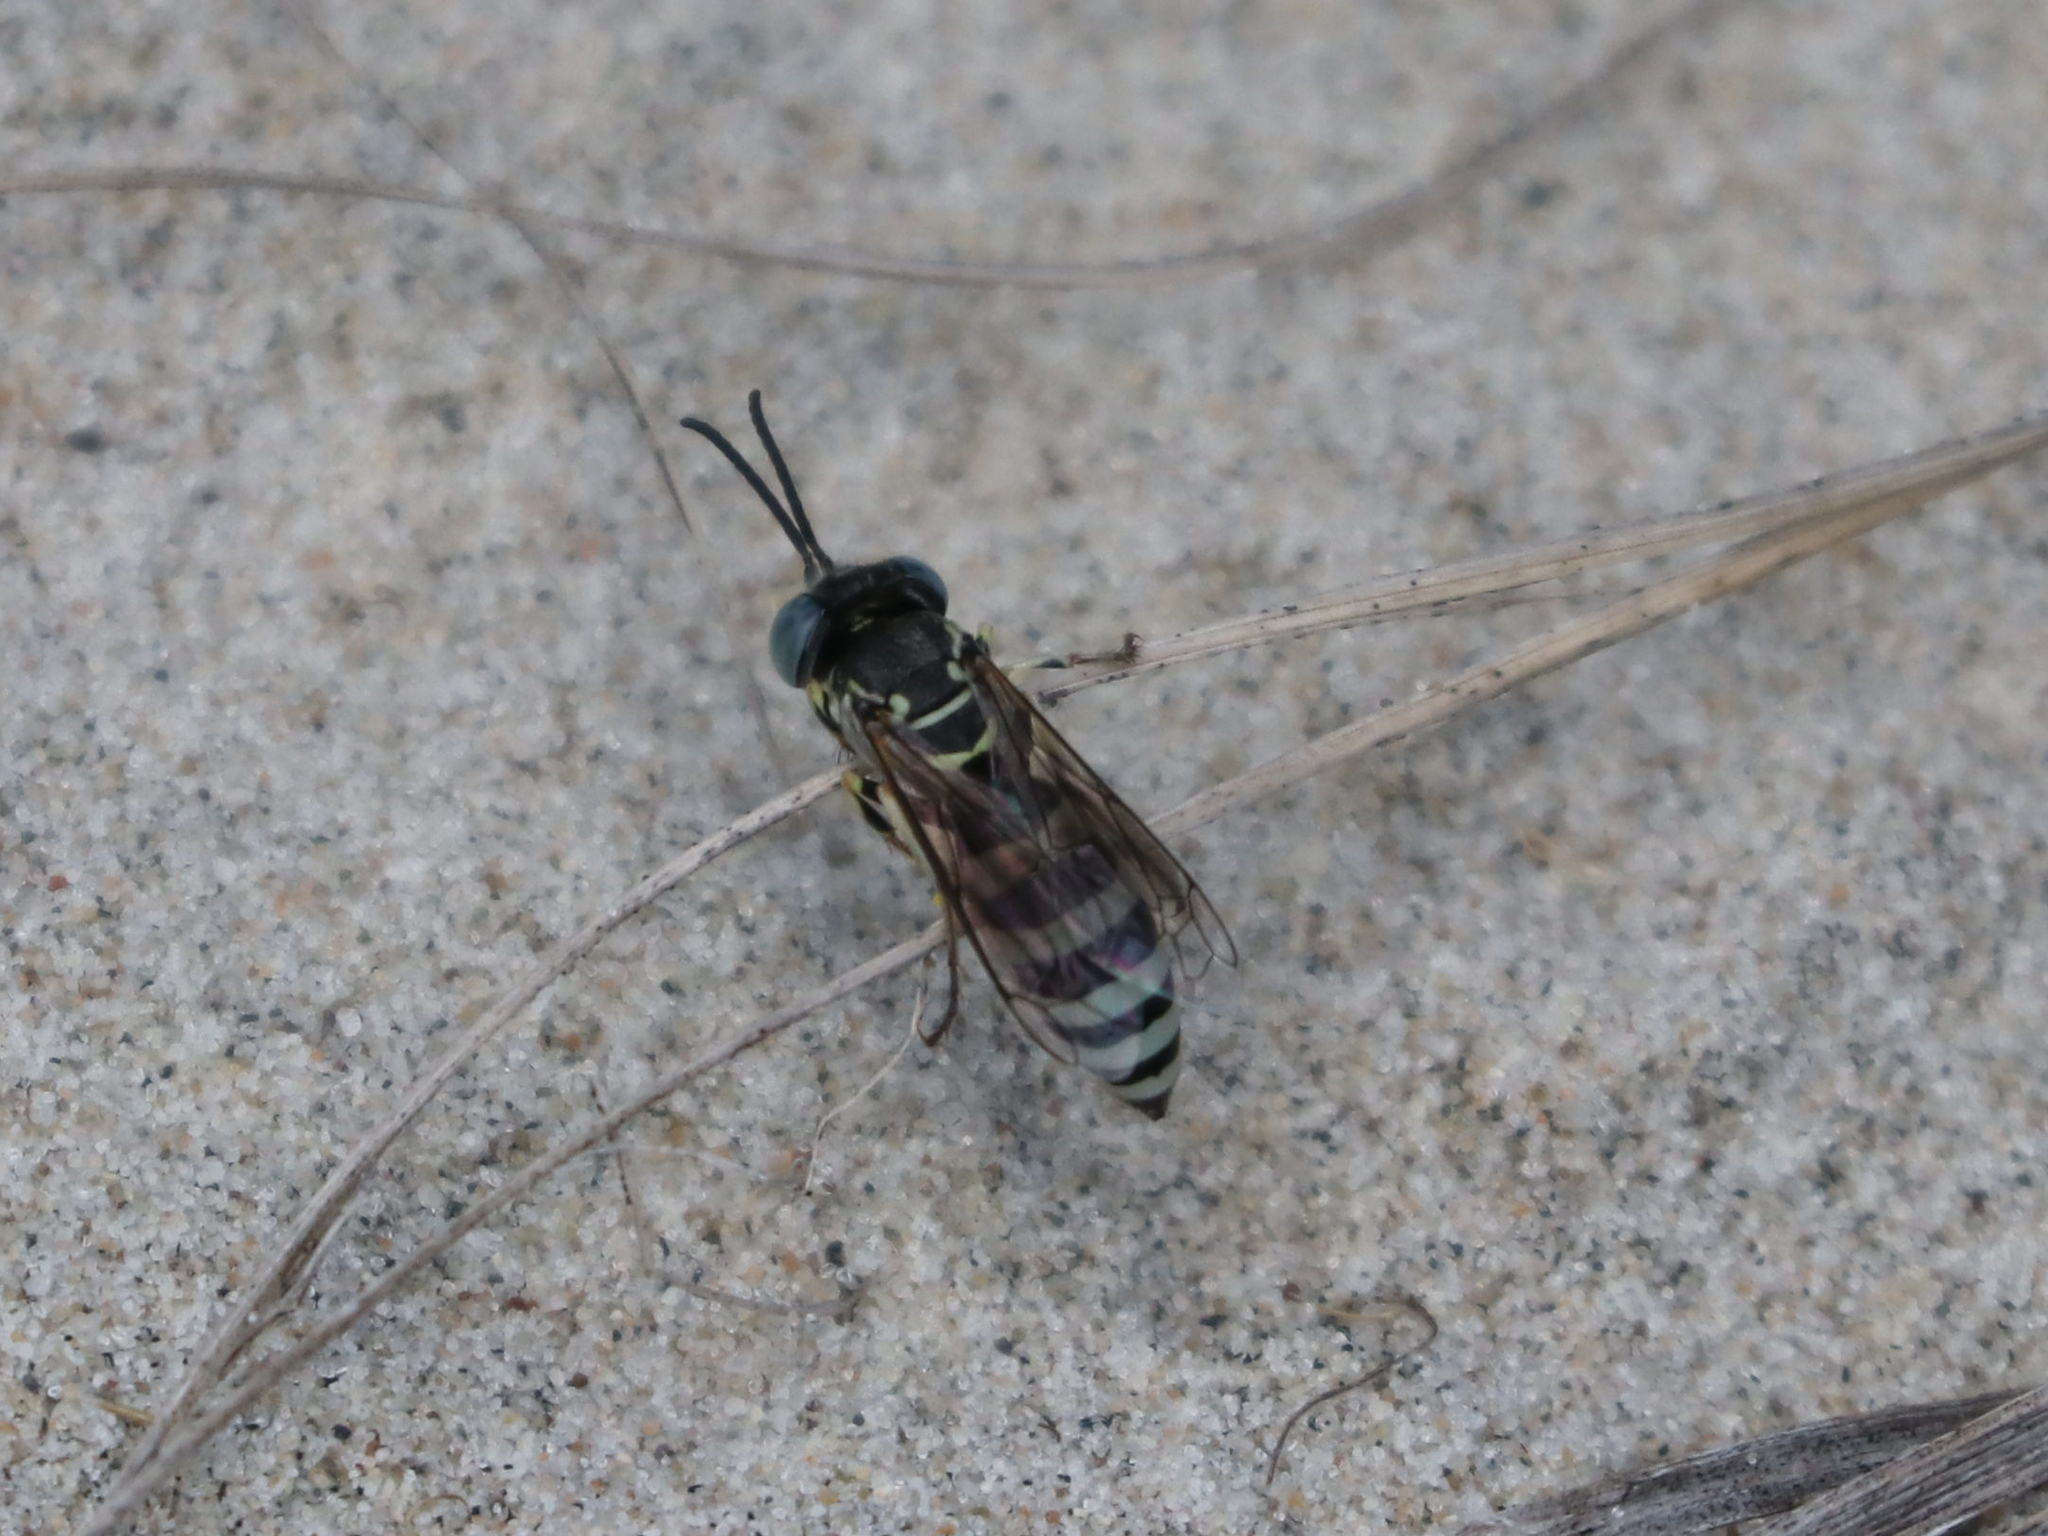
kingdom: Animalia
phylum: Arthropoda
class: Insecta
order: Hymenoptera
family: Crabronidae
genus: Microbembex
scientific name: Microbembex monodonta
